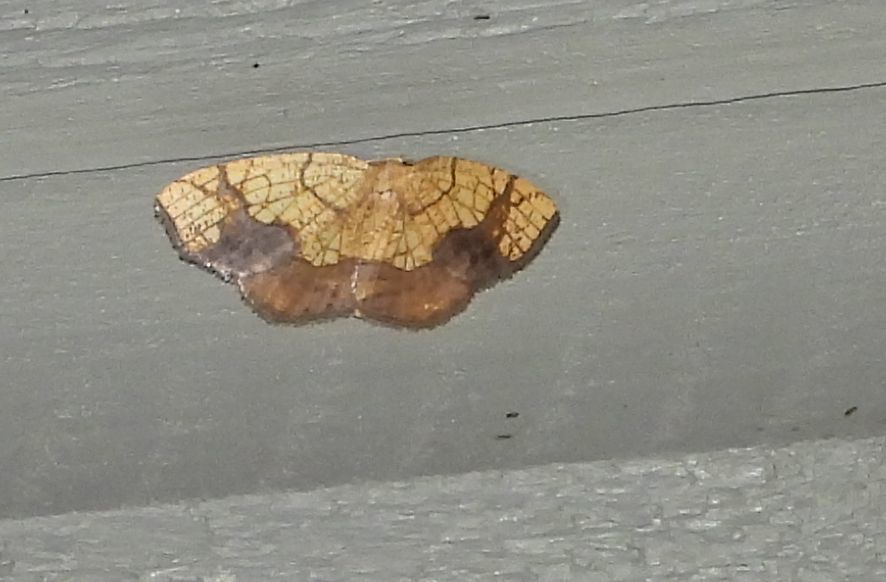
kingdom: Animalia
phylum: Arthropoda
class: Insecta
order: Lepidoptera
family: Geometridae
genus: Nematocampa
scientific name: Nematocampa resistaria
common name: Horned spanworm moth
